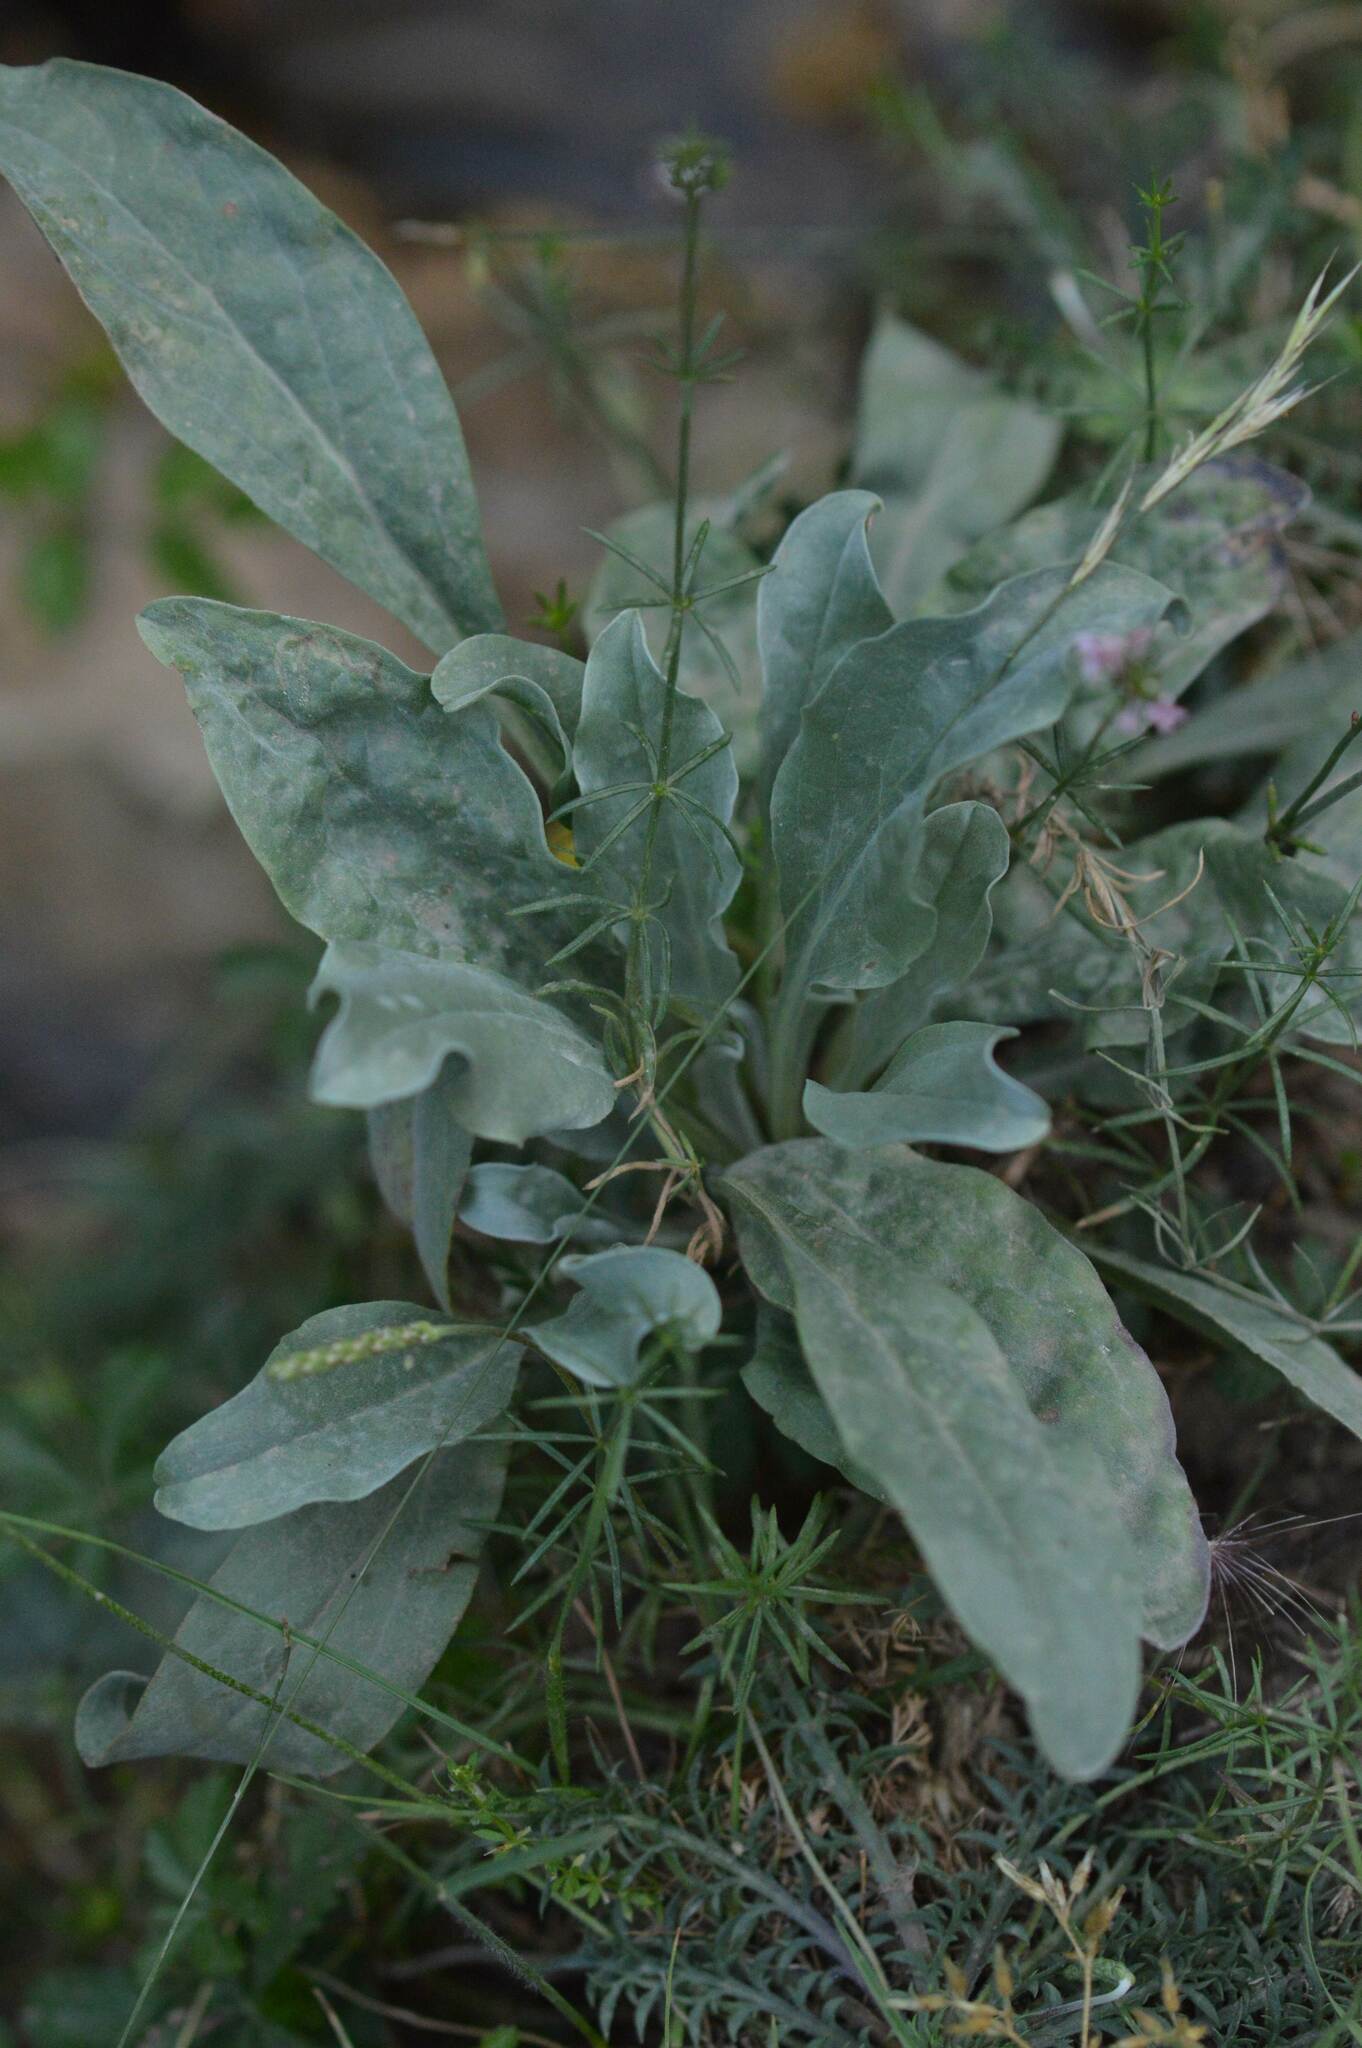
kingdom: Plantae
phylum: Tracheophyta
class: Magnoliopsida
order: Boraginales
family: Boraginaceae
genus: Cynoglossum
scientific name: Cynoglossum creticum
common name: Blue hound's tongue
